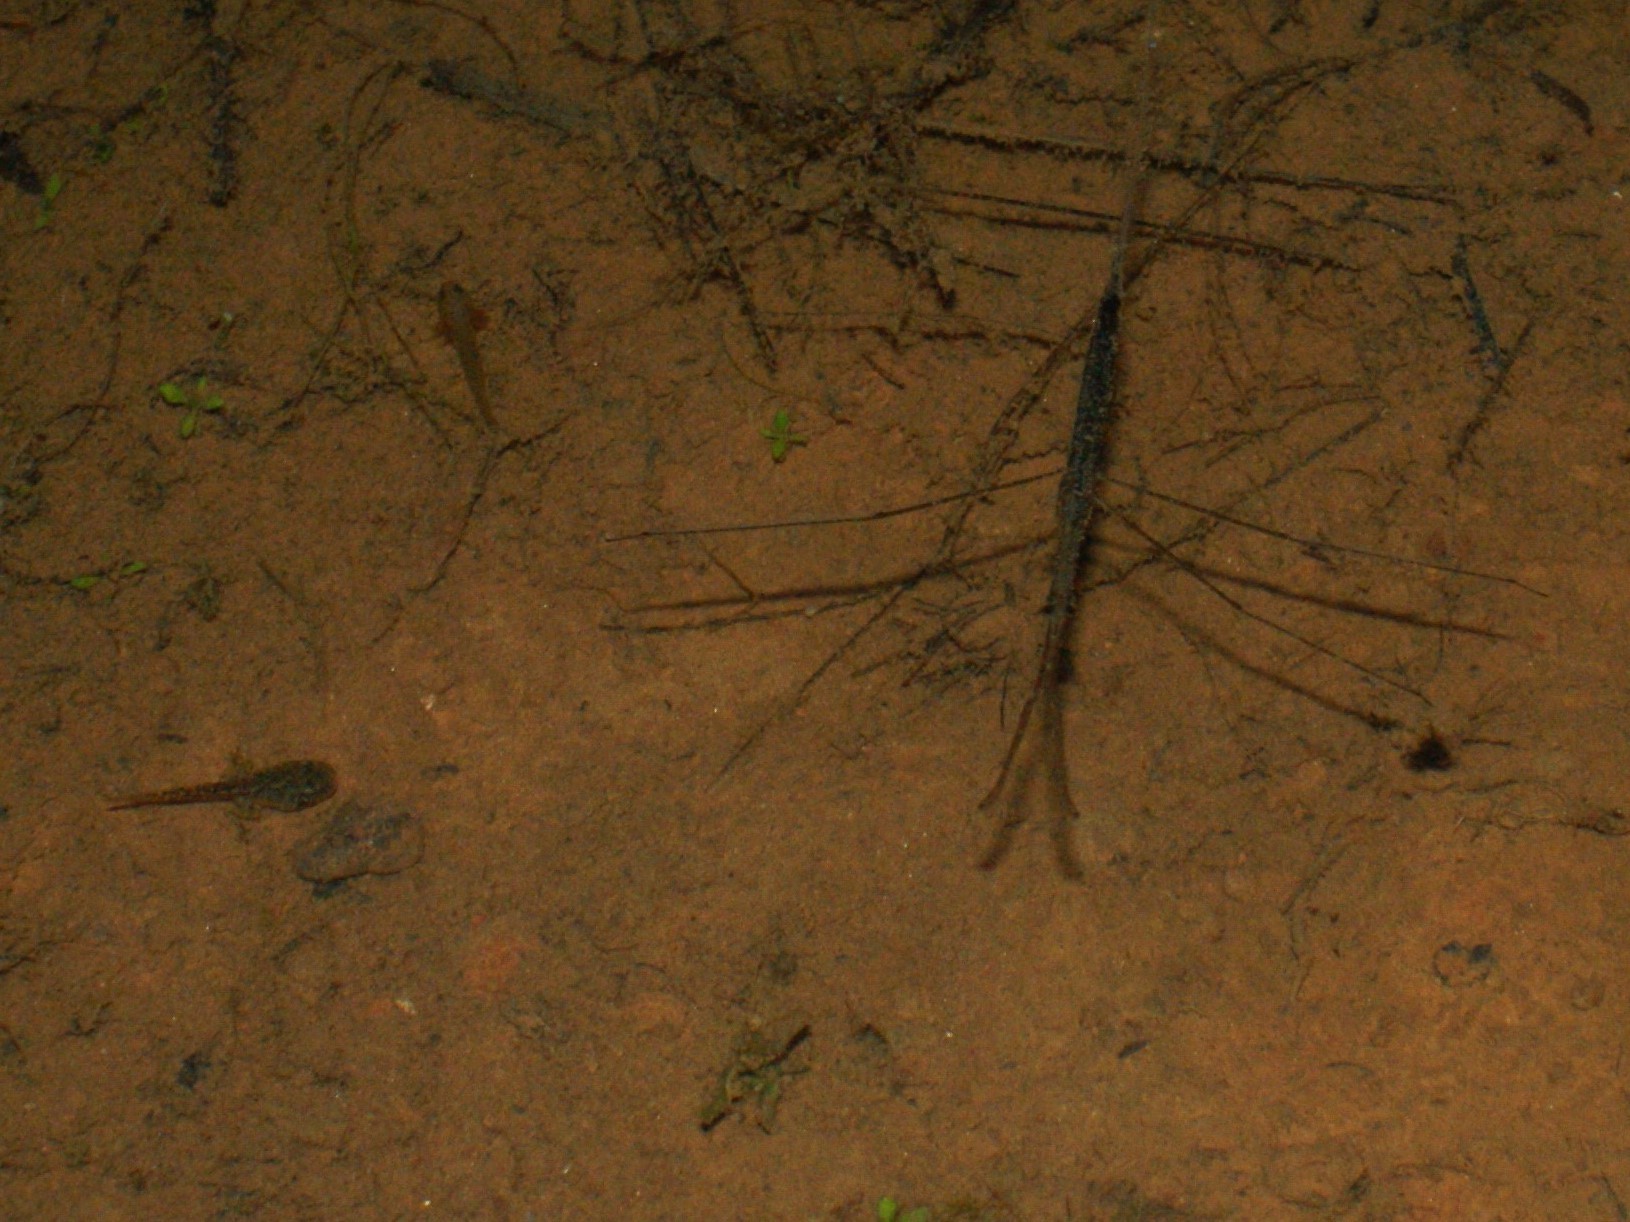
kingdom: Animalia
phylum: Arthropoda
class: Insecta
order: Hemiptera
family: Nepidae
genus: Ranatra
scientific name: Ranatra
